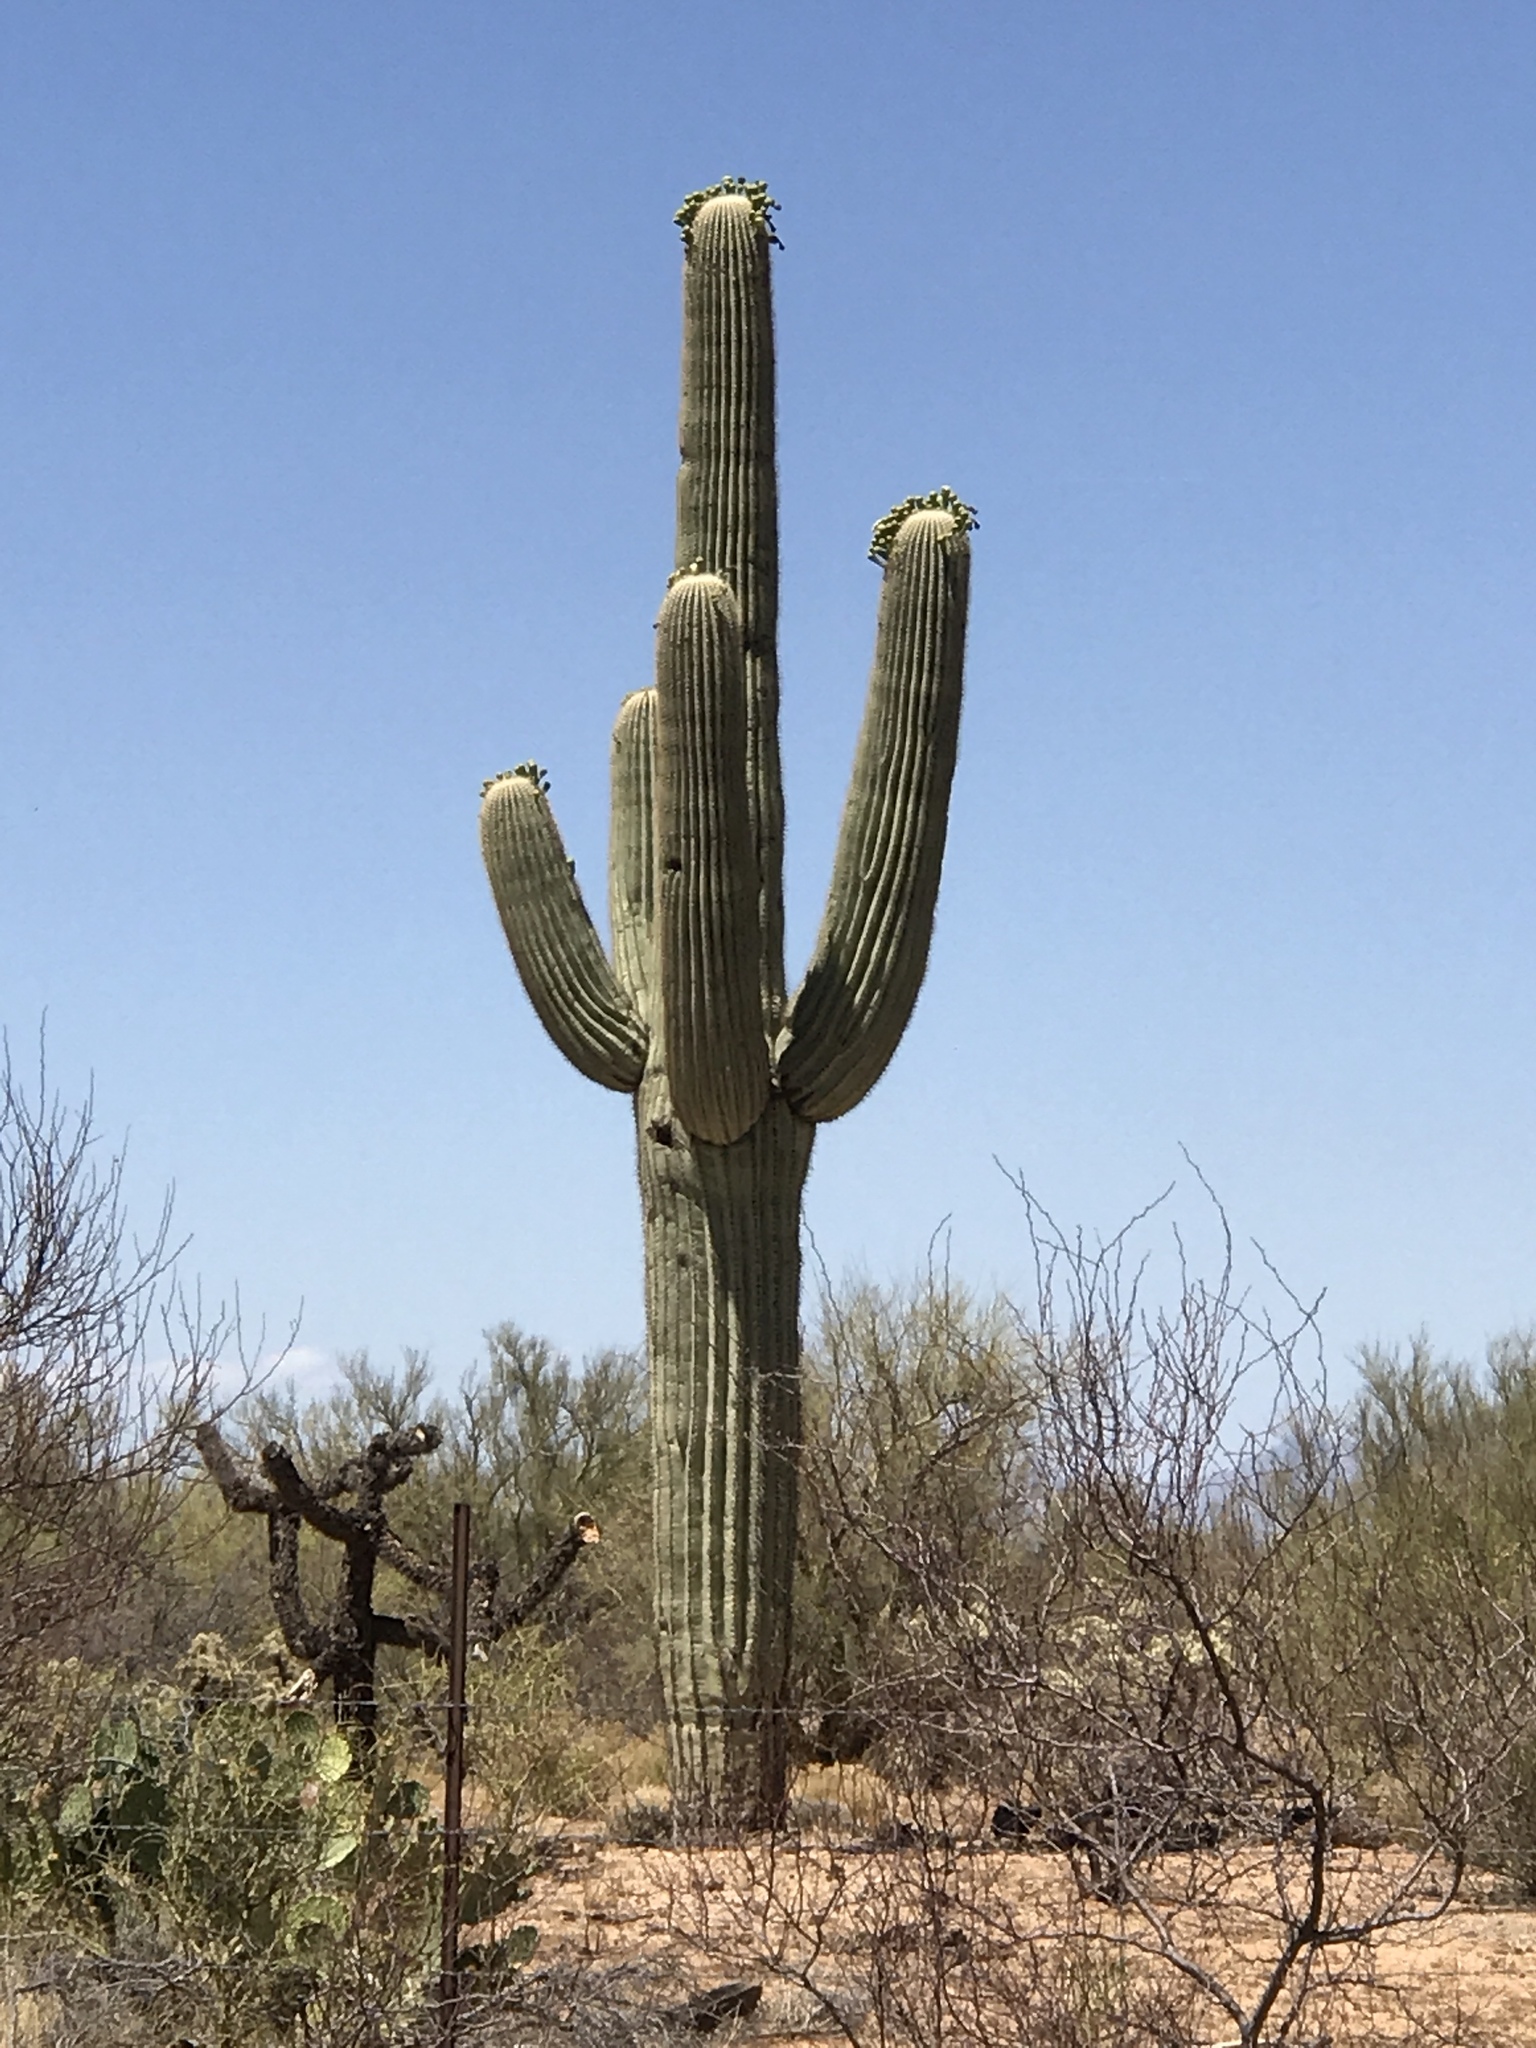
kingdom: Plantae
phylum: Tracheophyta
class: Magnoliopsida
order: Caryophyllales
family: Cactaceae
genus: Carnegiea
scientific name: Carnegiea gigantea
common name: Saguaro
